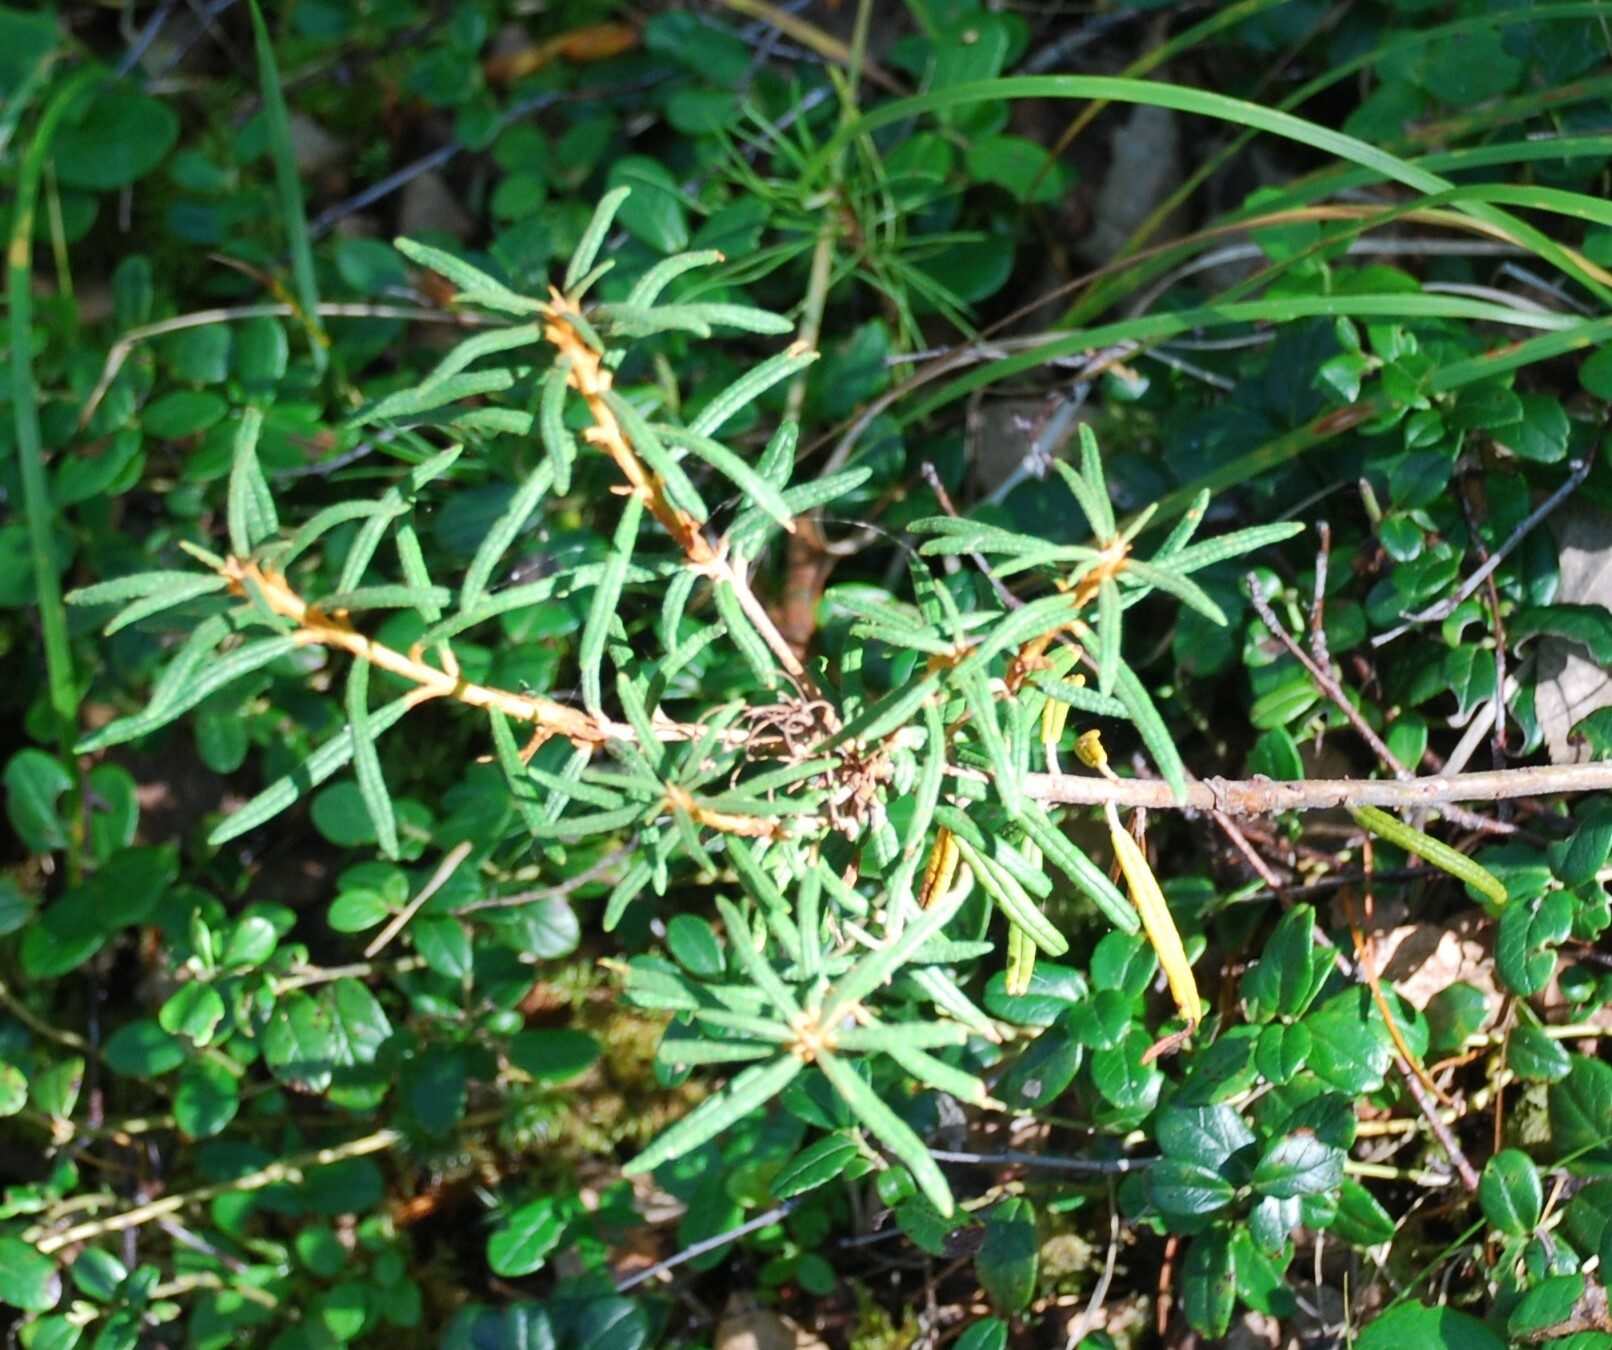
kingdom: Plantae
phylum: Tracheophyta
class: Magnoliopsida
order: Ericales
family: Ericaceae
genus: Rhododendron
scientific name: Rhododendron tomentosum
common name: Marsh labrador tea
